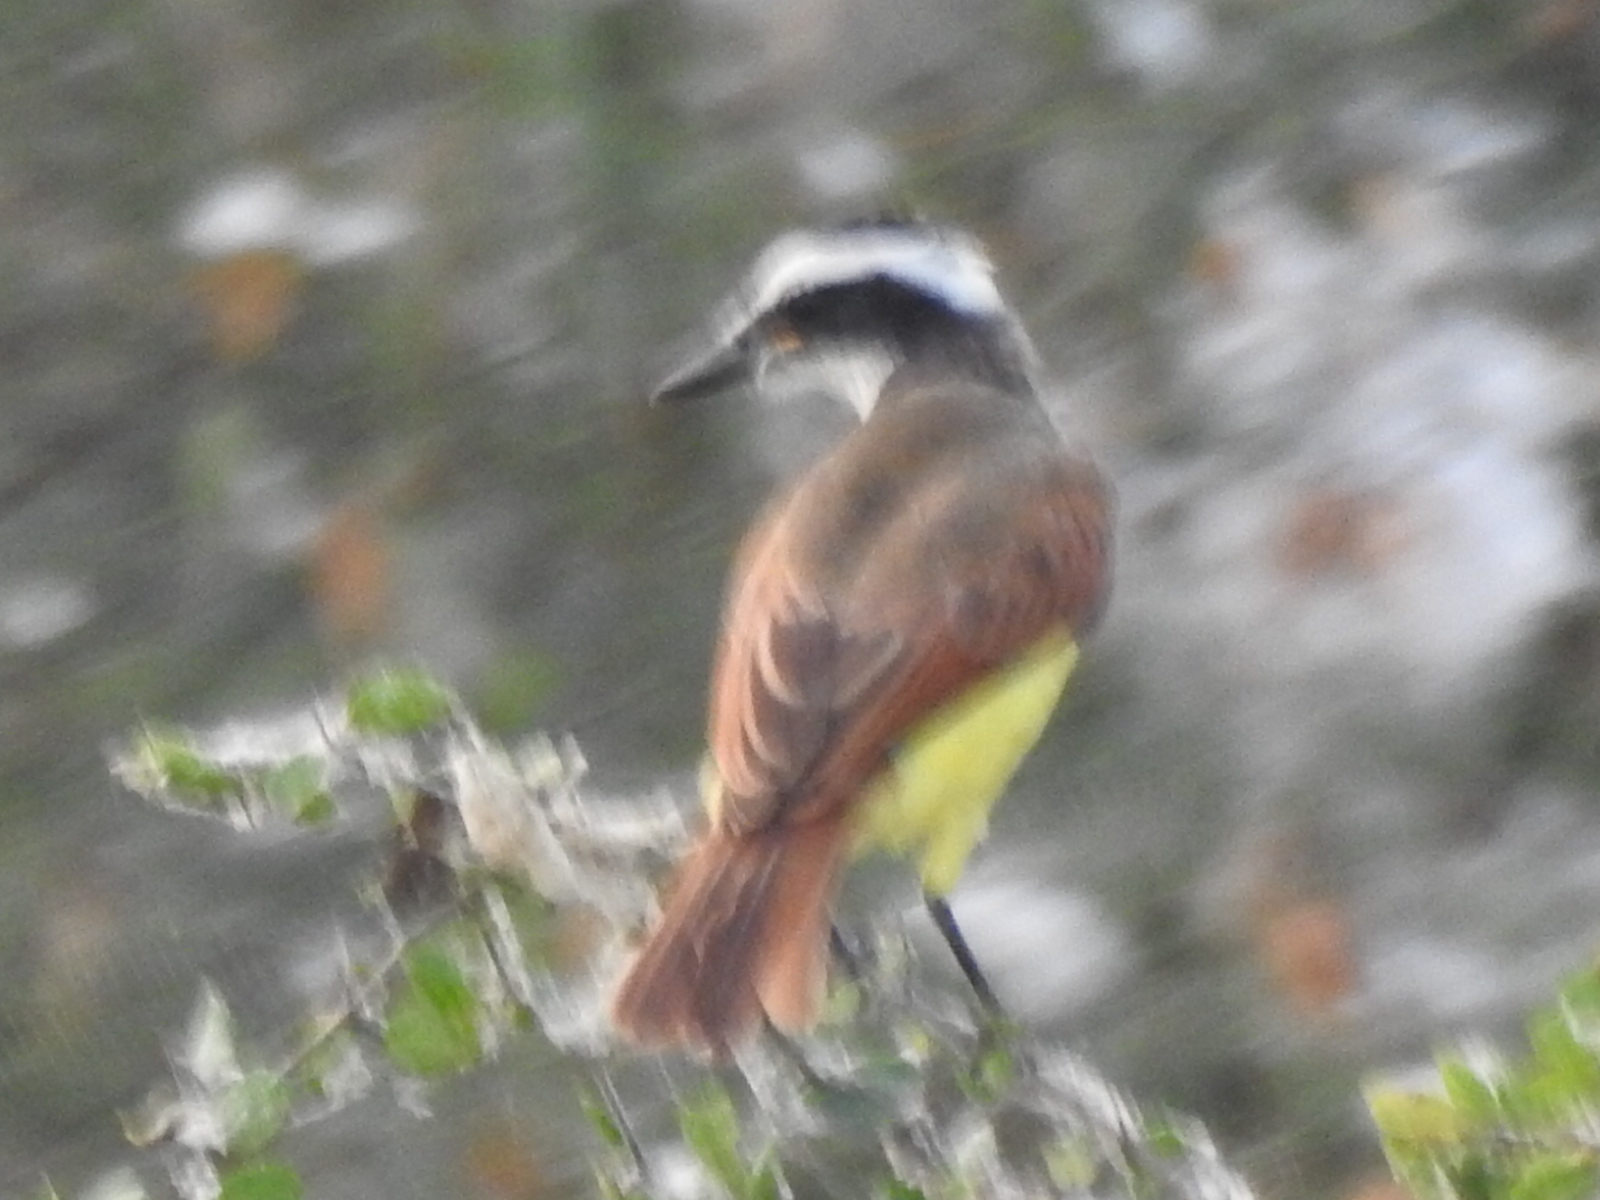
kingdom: Animalia
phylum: Chordata
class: Aves
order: Passeriformes
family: Tyrannidae
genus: Pitangus
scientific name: Pitangus sulphuratus
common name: Great kiskadee
